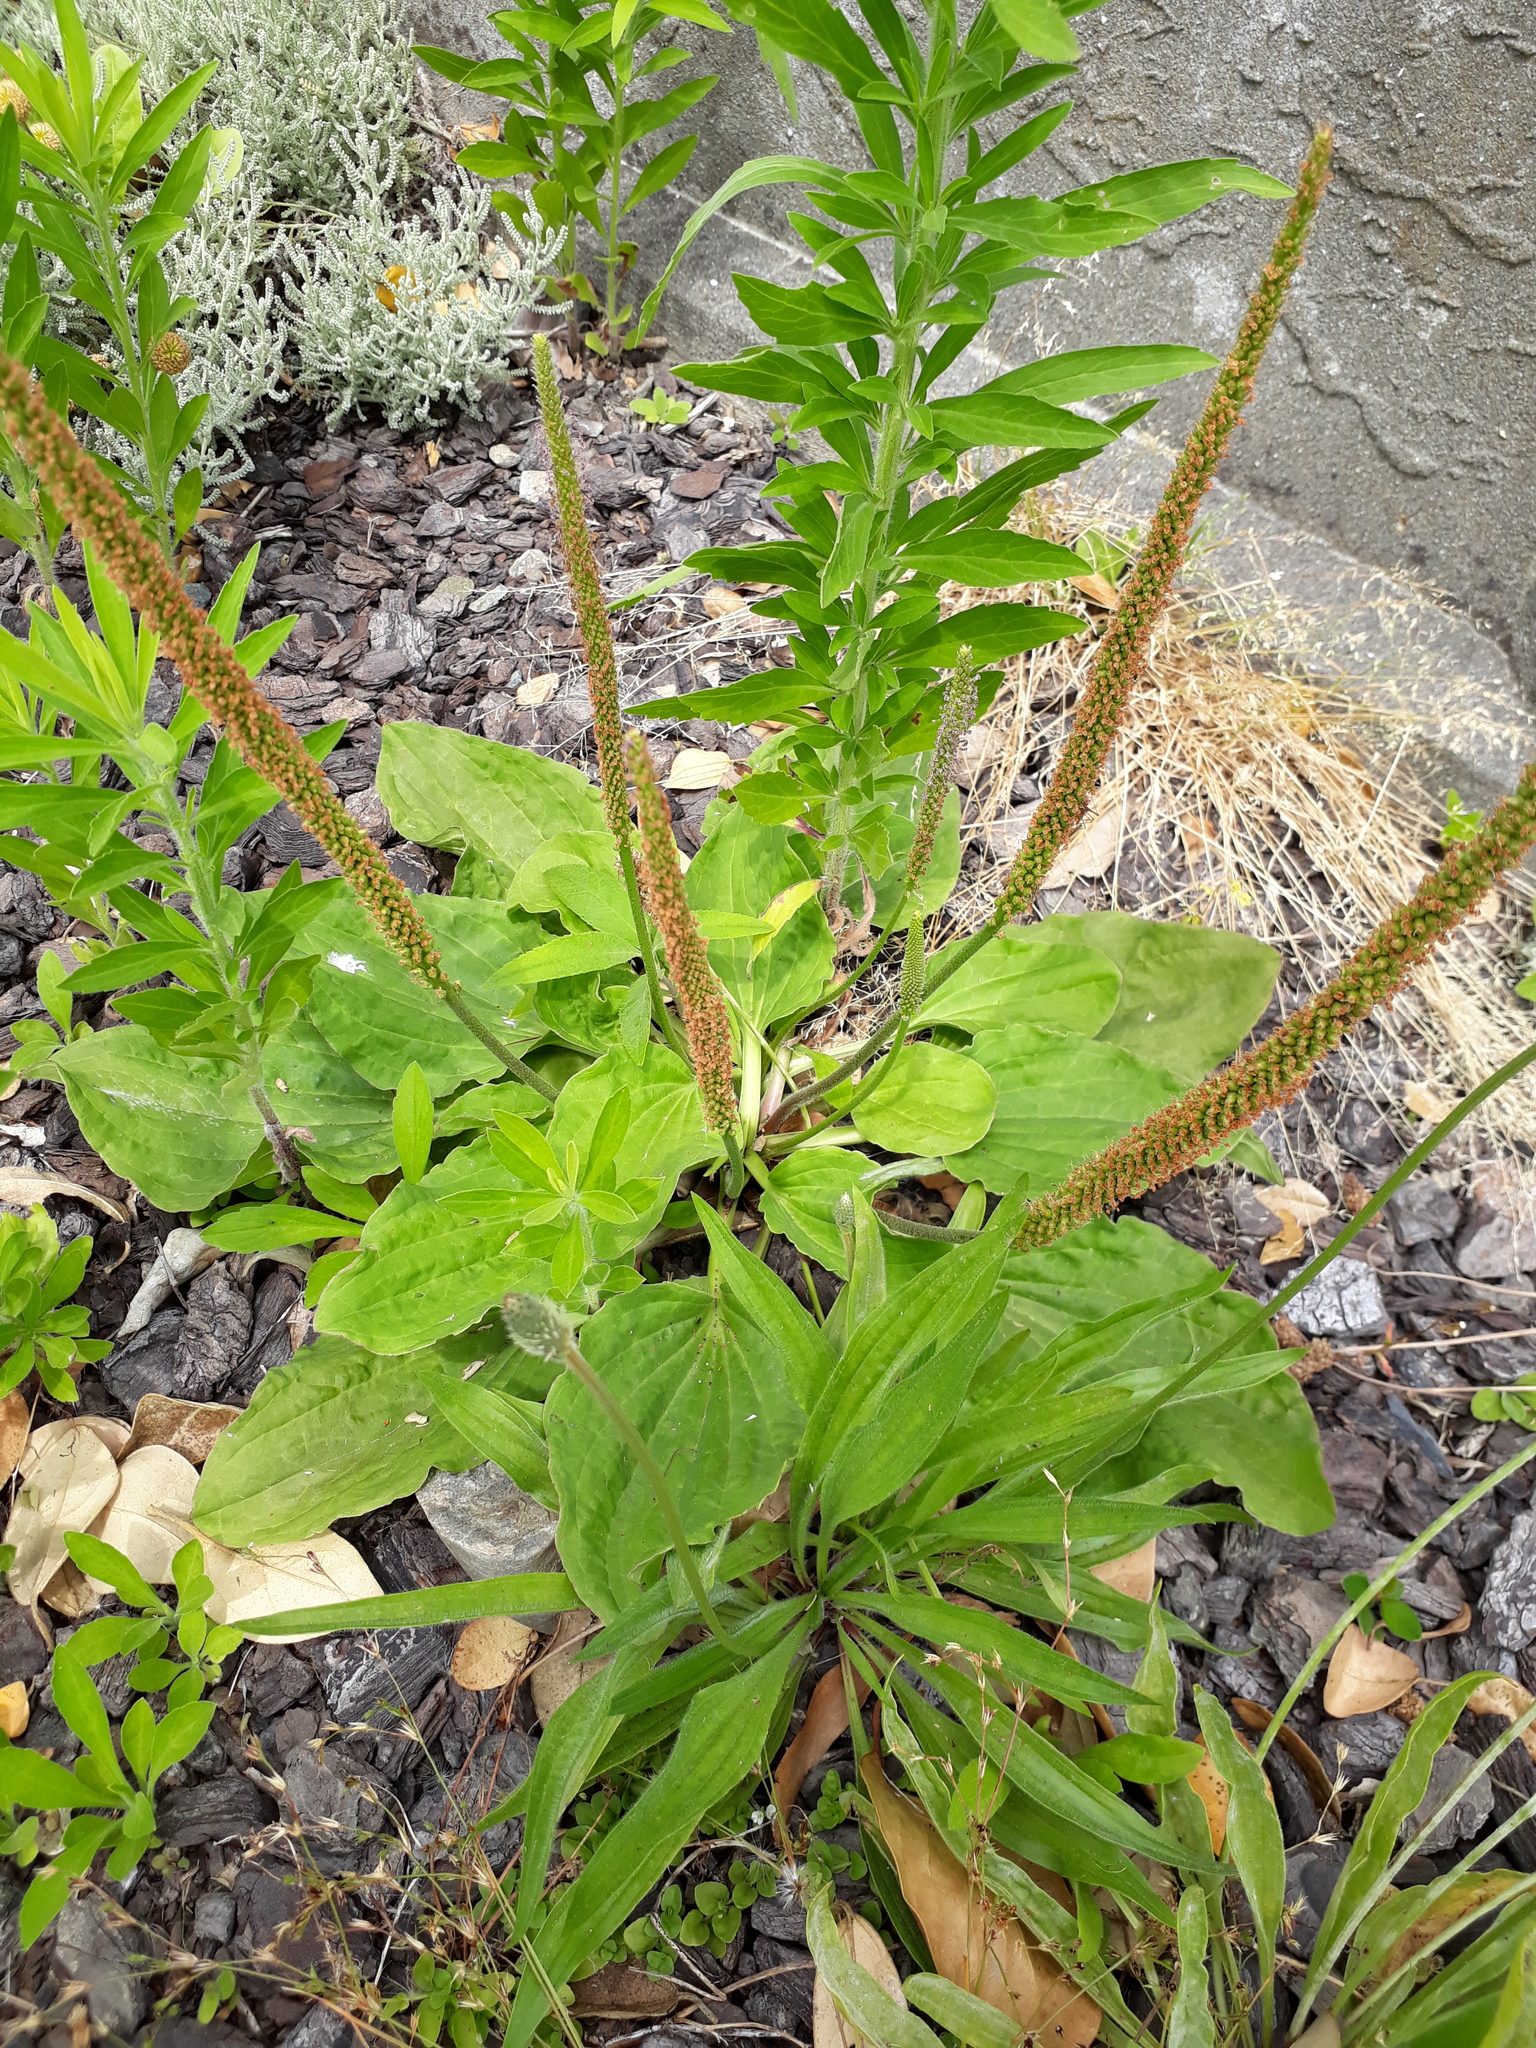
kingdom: Plantae
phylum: Tracheophyta
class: Magnoliopsida
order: Lamiales
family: Plantaginaceae
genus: Plantago
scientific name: Plantago major
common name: Common plantain
